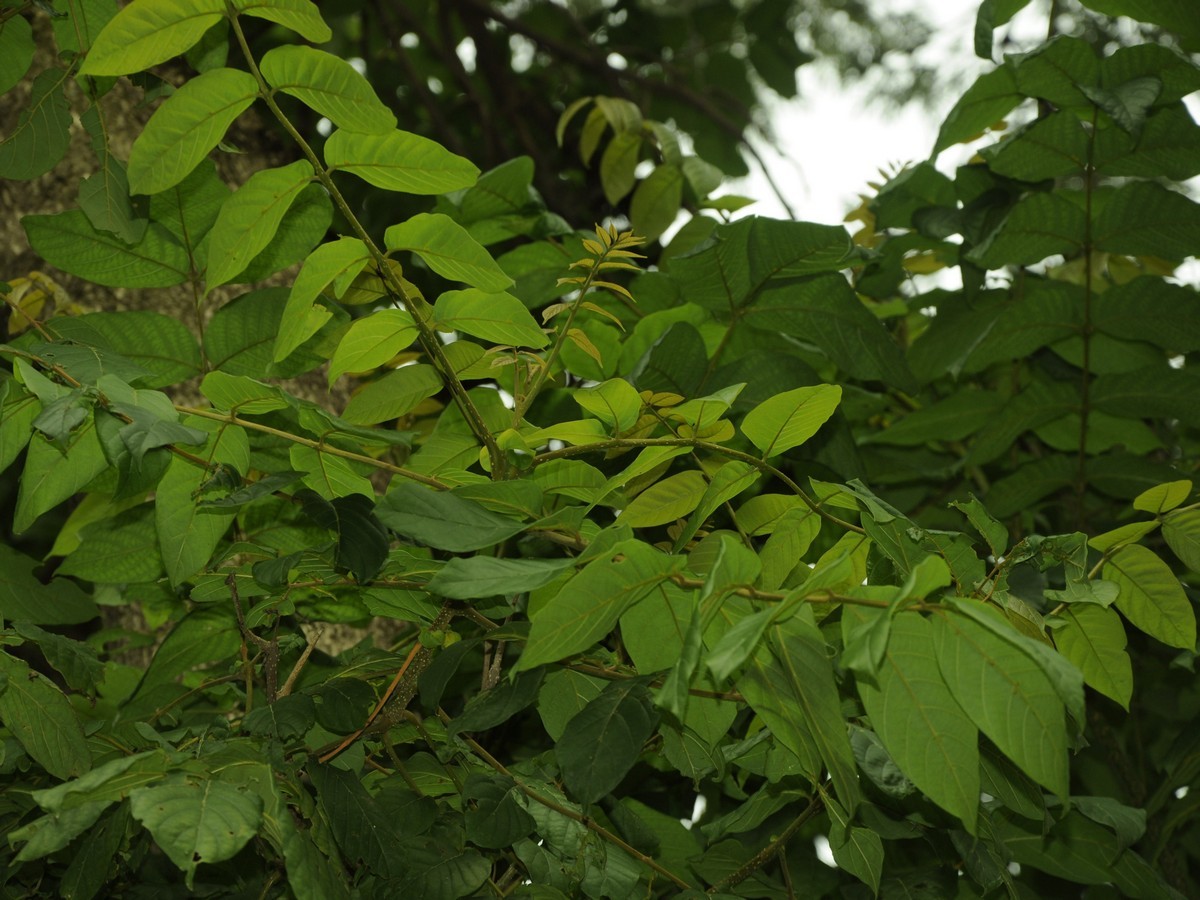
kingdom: Plantae
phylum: Tracheophyta
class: Magnoliopsida
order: Lamiales
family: Bignoniaceae
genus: Spathodea
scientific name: Spathodea campanulata
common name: African tuliptree
